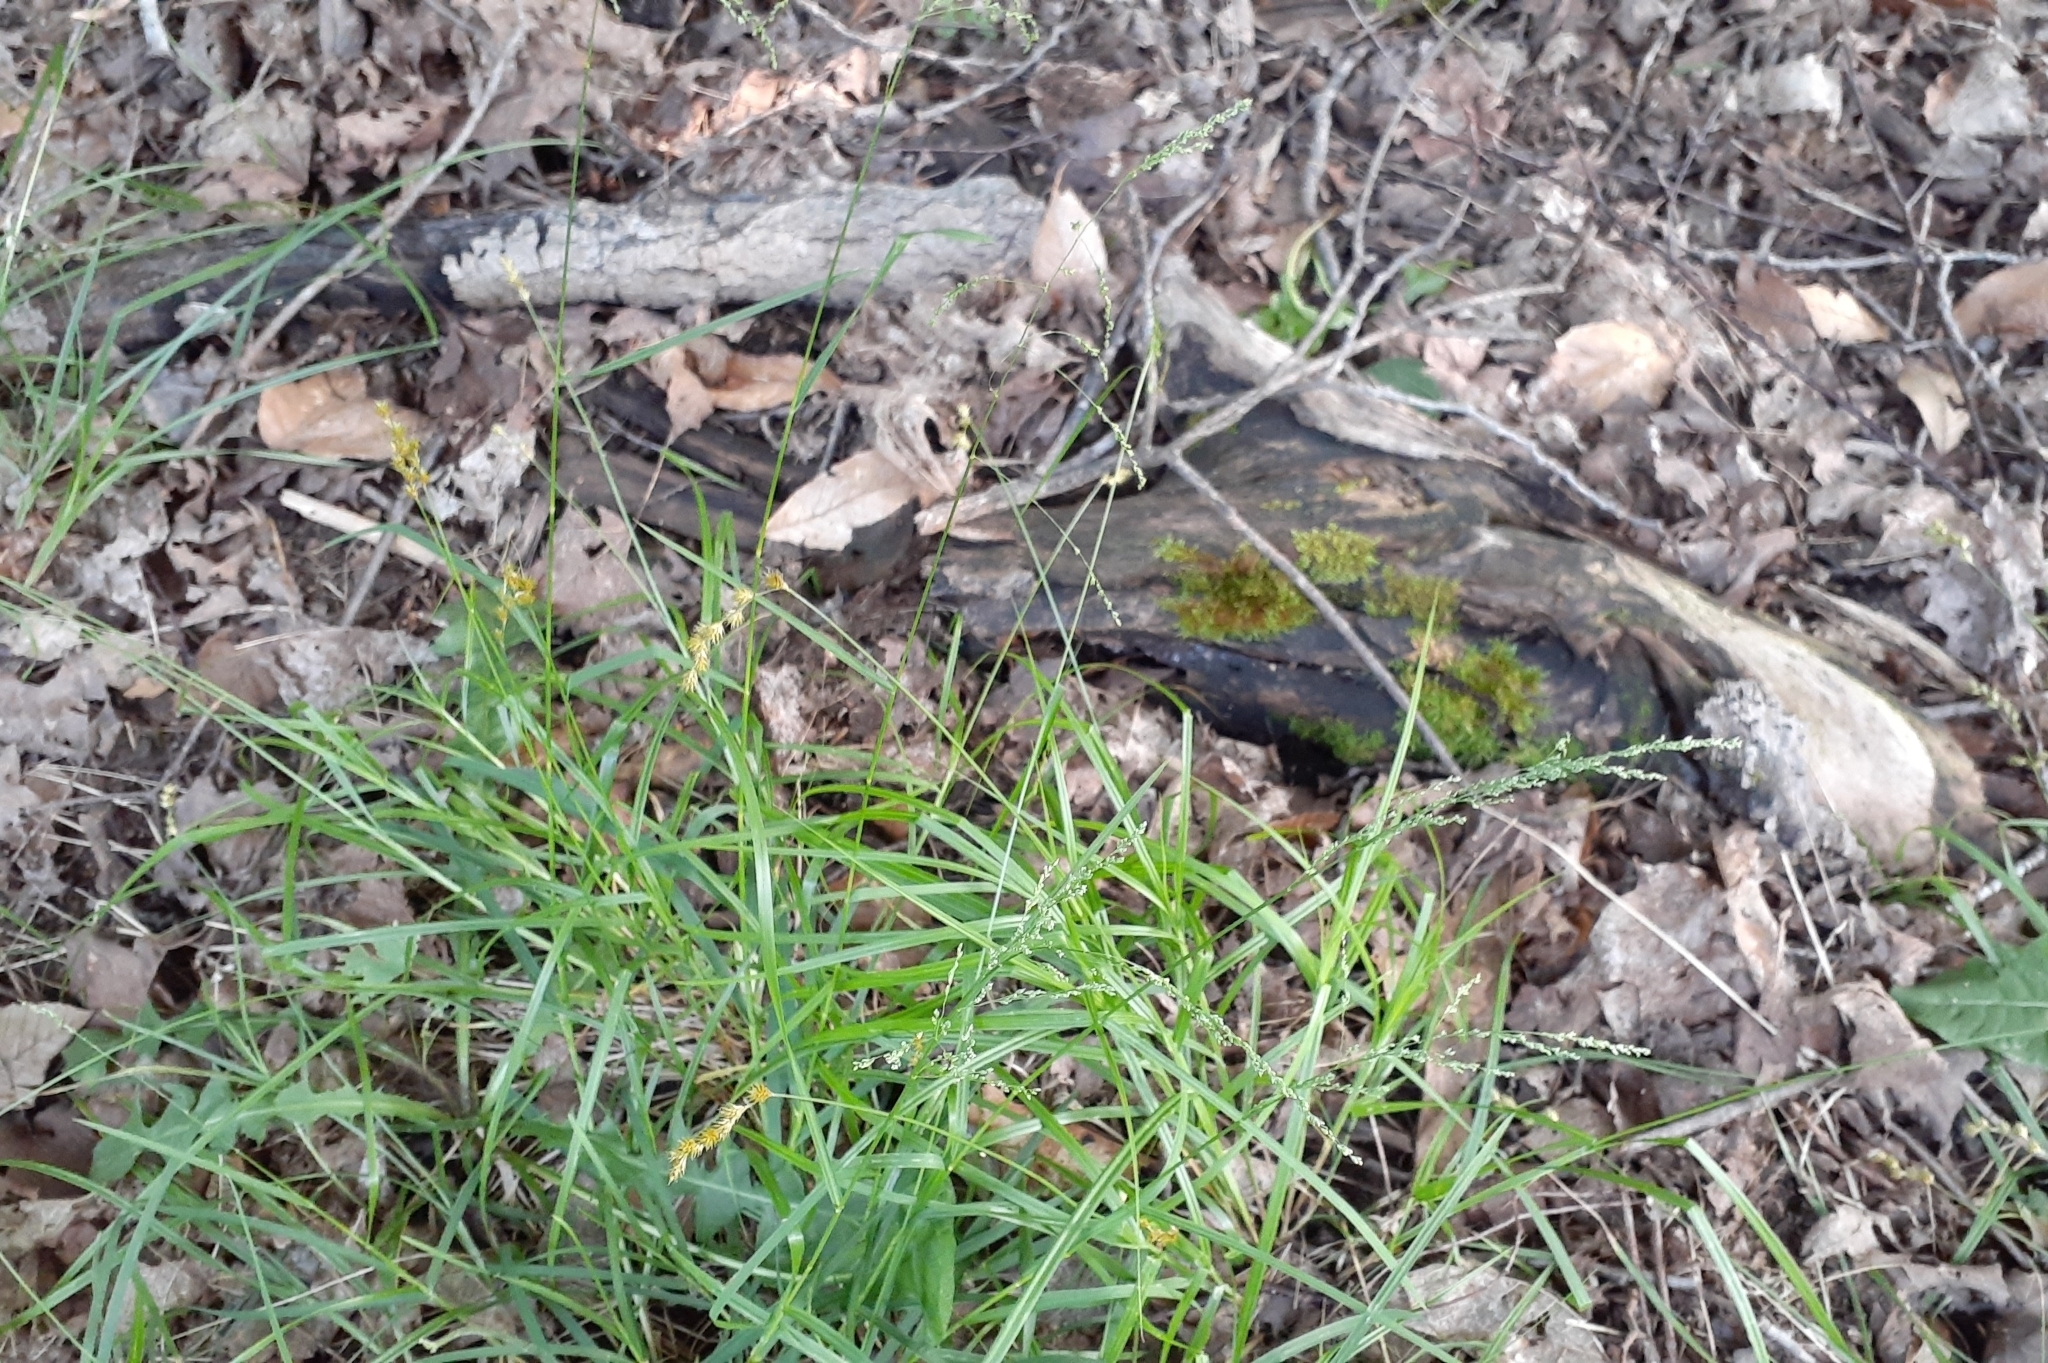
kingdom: Plantae
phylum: Tracheophyta
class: Liliopsida
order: Poales
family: Poaceae
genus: Glyceria
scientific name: Glyceria striata
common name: Fowl manna grass
